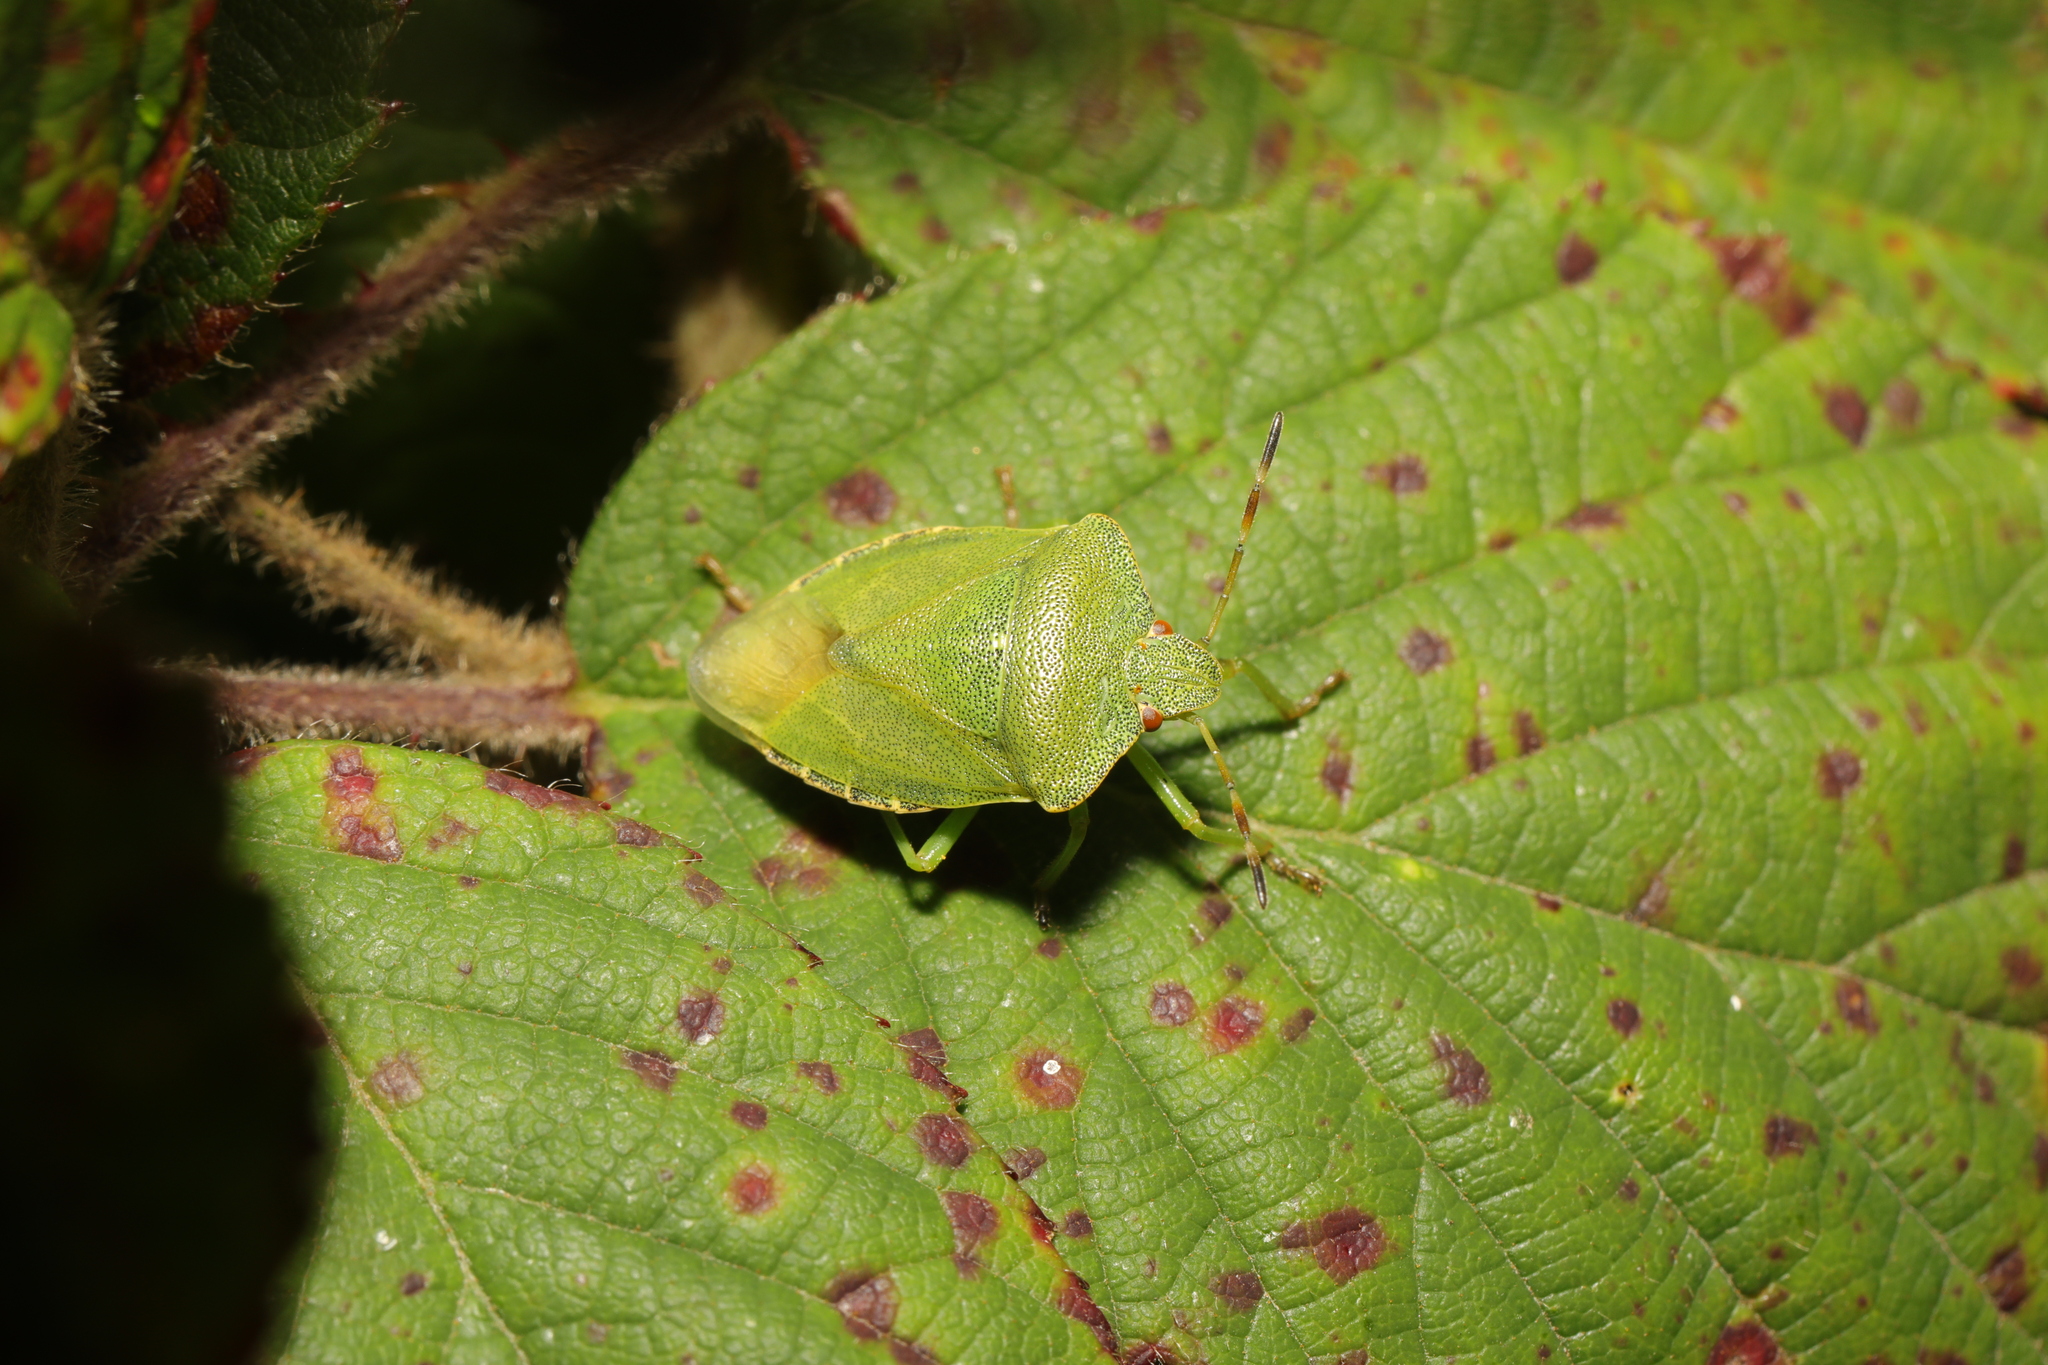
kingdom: Animalia
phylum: Arthropoda
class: Insecta
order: Hemiptera
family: Pentatomidae
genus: Palomena
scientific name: Palomena prasina
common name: Green shieldbug
